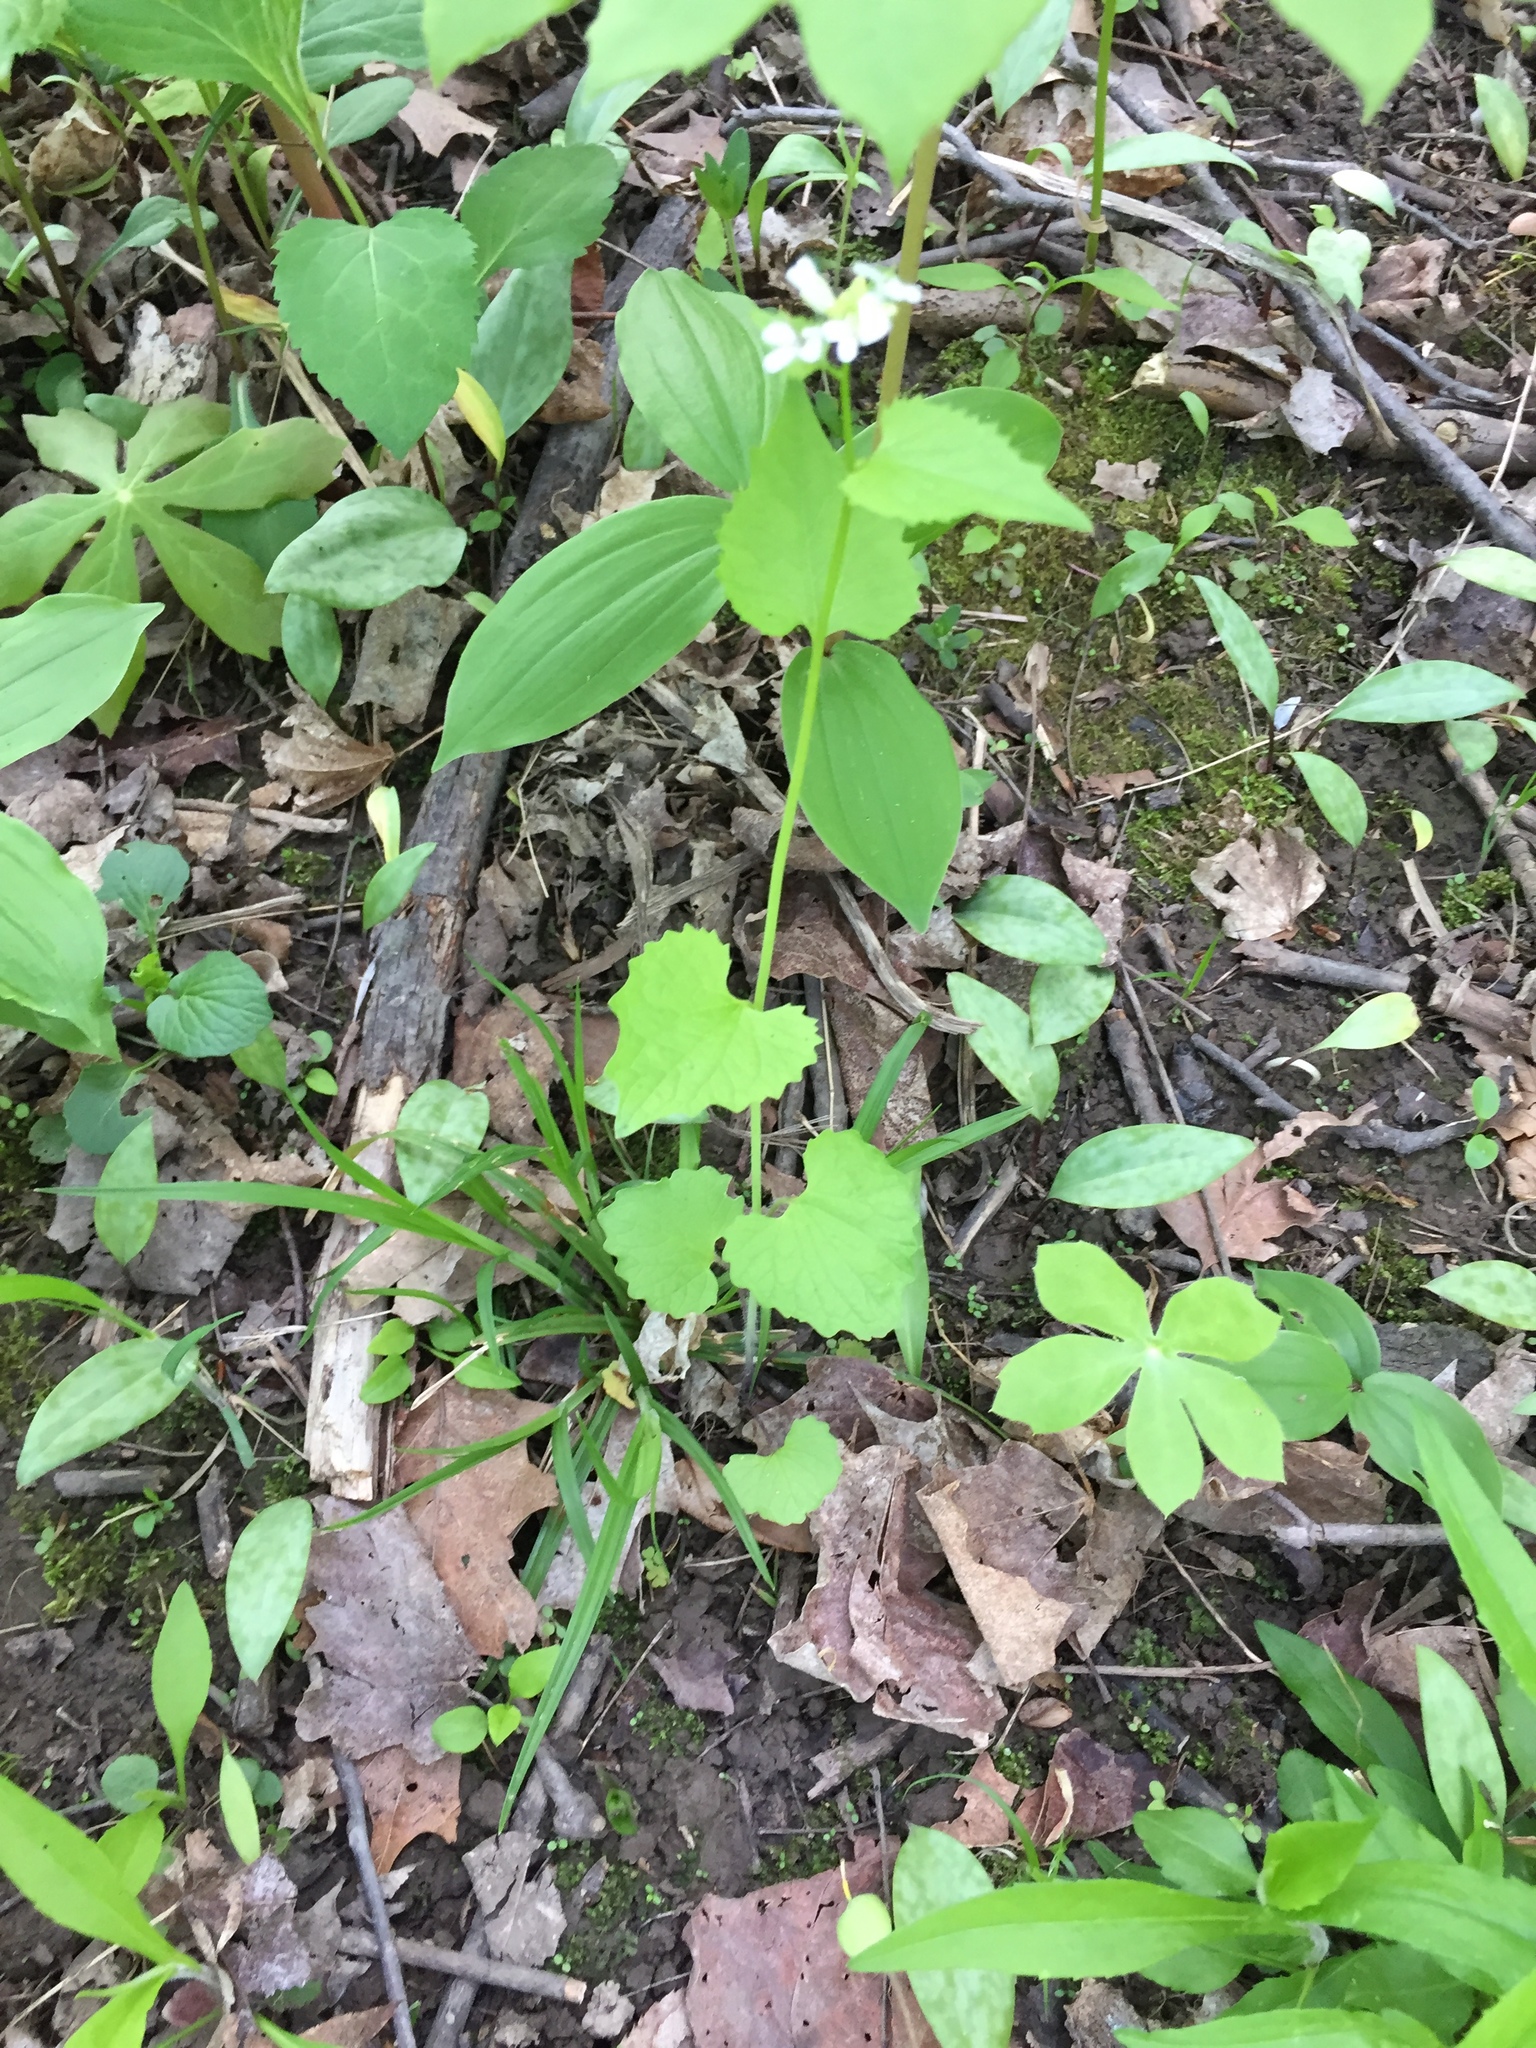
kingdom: Plantae
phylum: Tracheophyta
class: Magnoliopsida
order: Brassicales
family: Brassicaceae
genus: Alliaria
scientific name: Alliaria petiolata
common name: Garlic mustard
